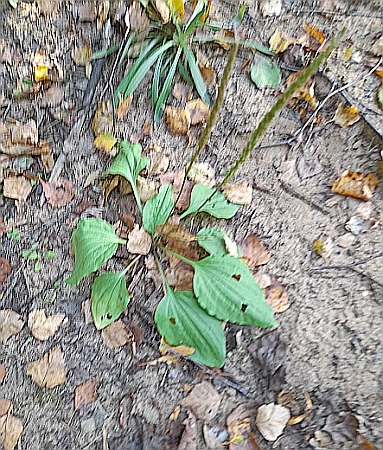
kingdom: Plantae
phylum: Tracheophyta
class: Magnoliopsida
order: Lamiales
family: Plantaginaceae
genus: Plantago
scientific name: Plantago major
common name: Common plantain
